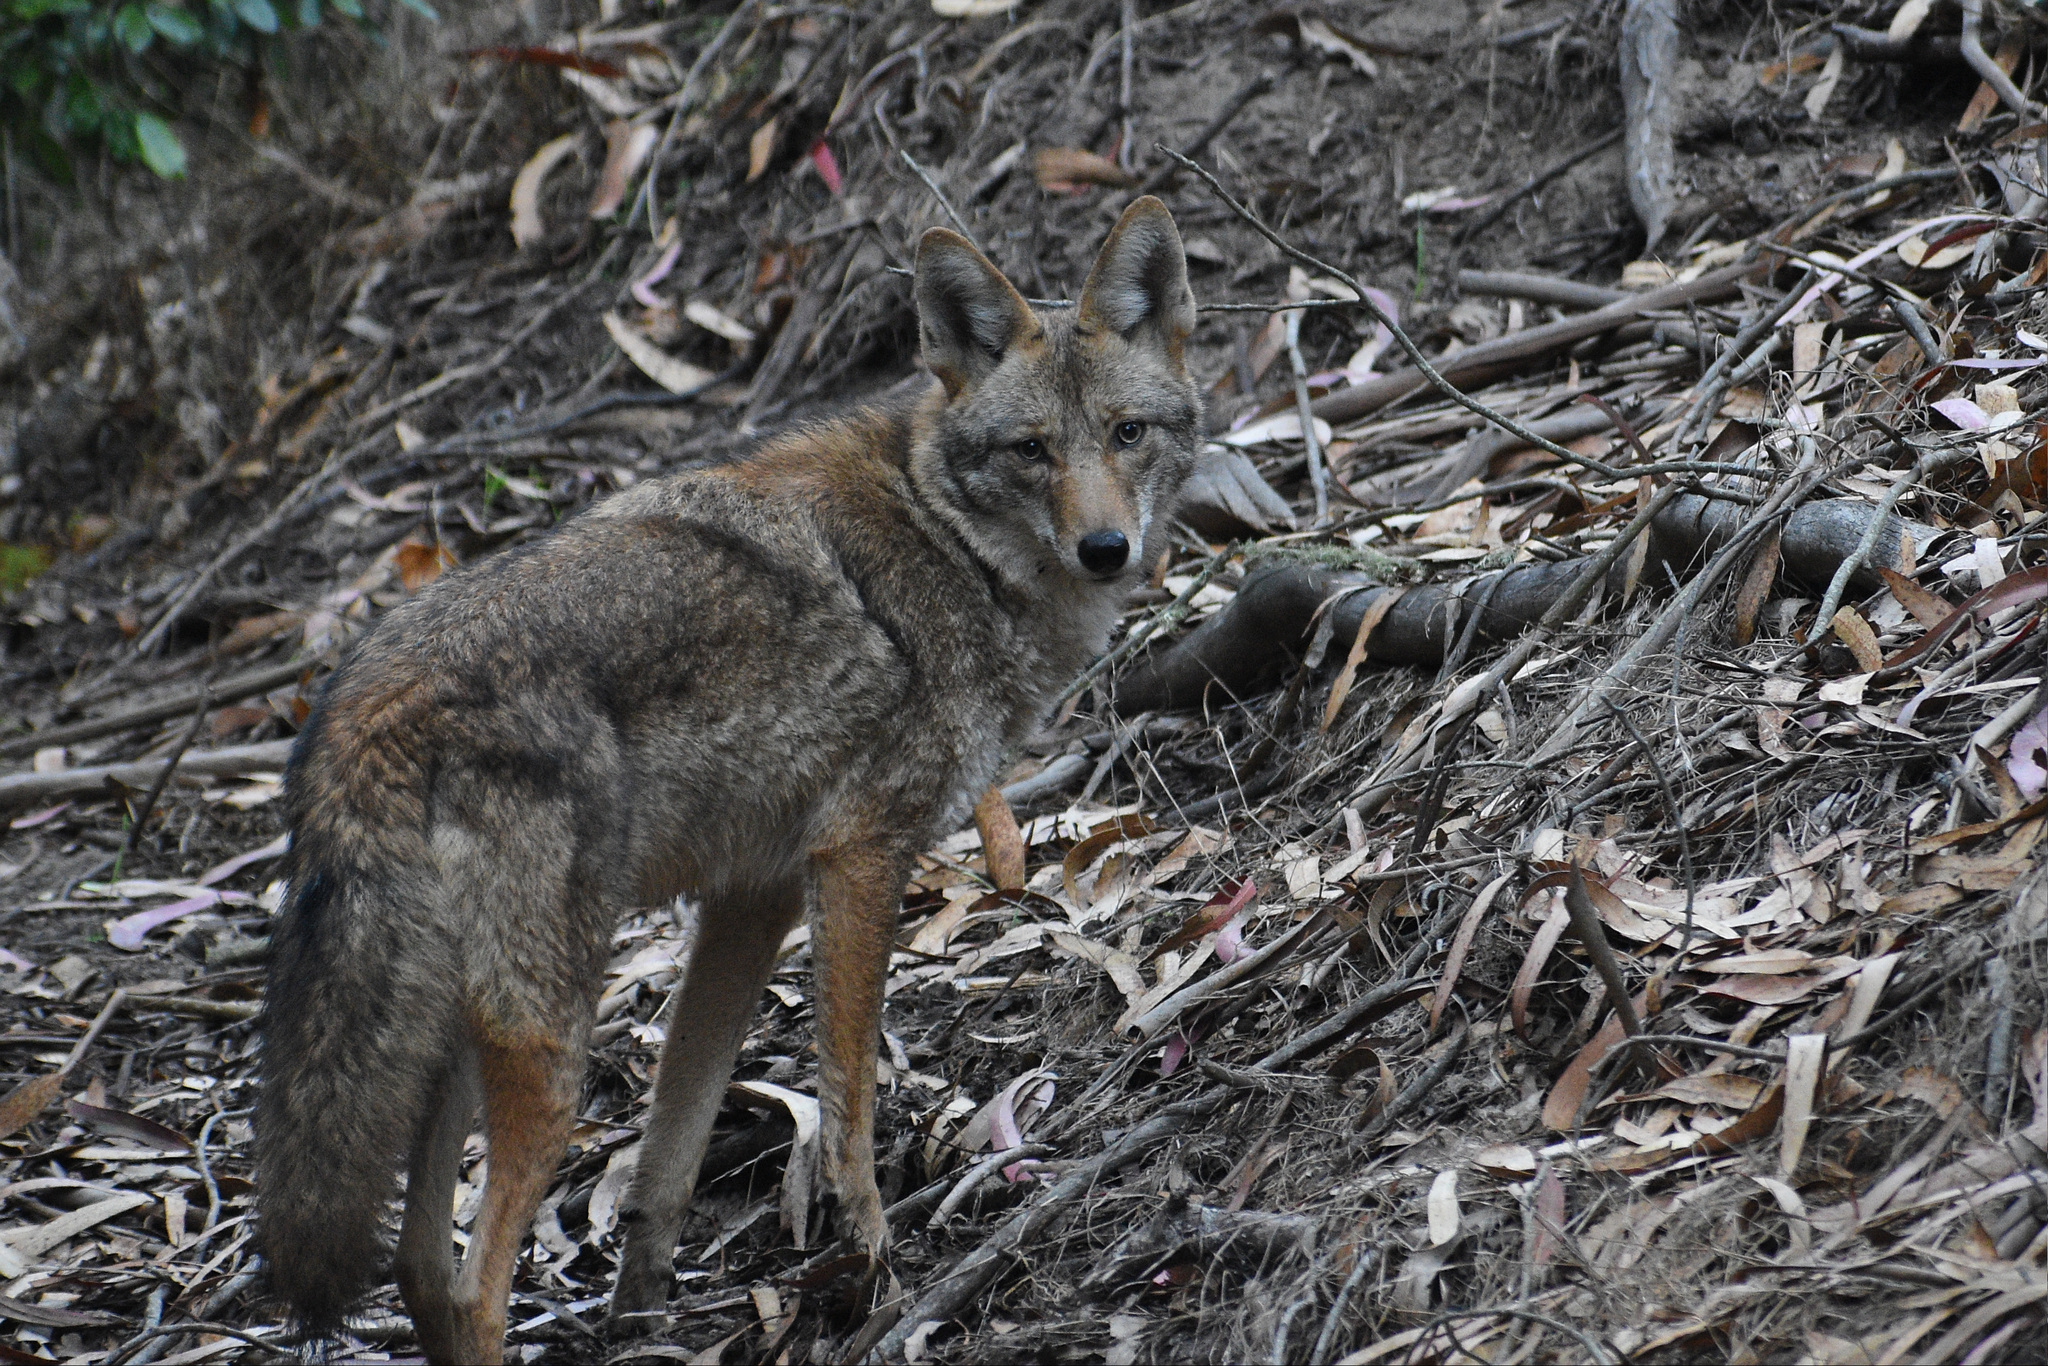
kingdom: Animalia
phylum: Chordata
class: Mammalia
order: Carnivora
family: Canidae
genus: Canis
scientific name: Canis latrans
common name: Coyote
